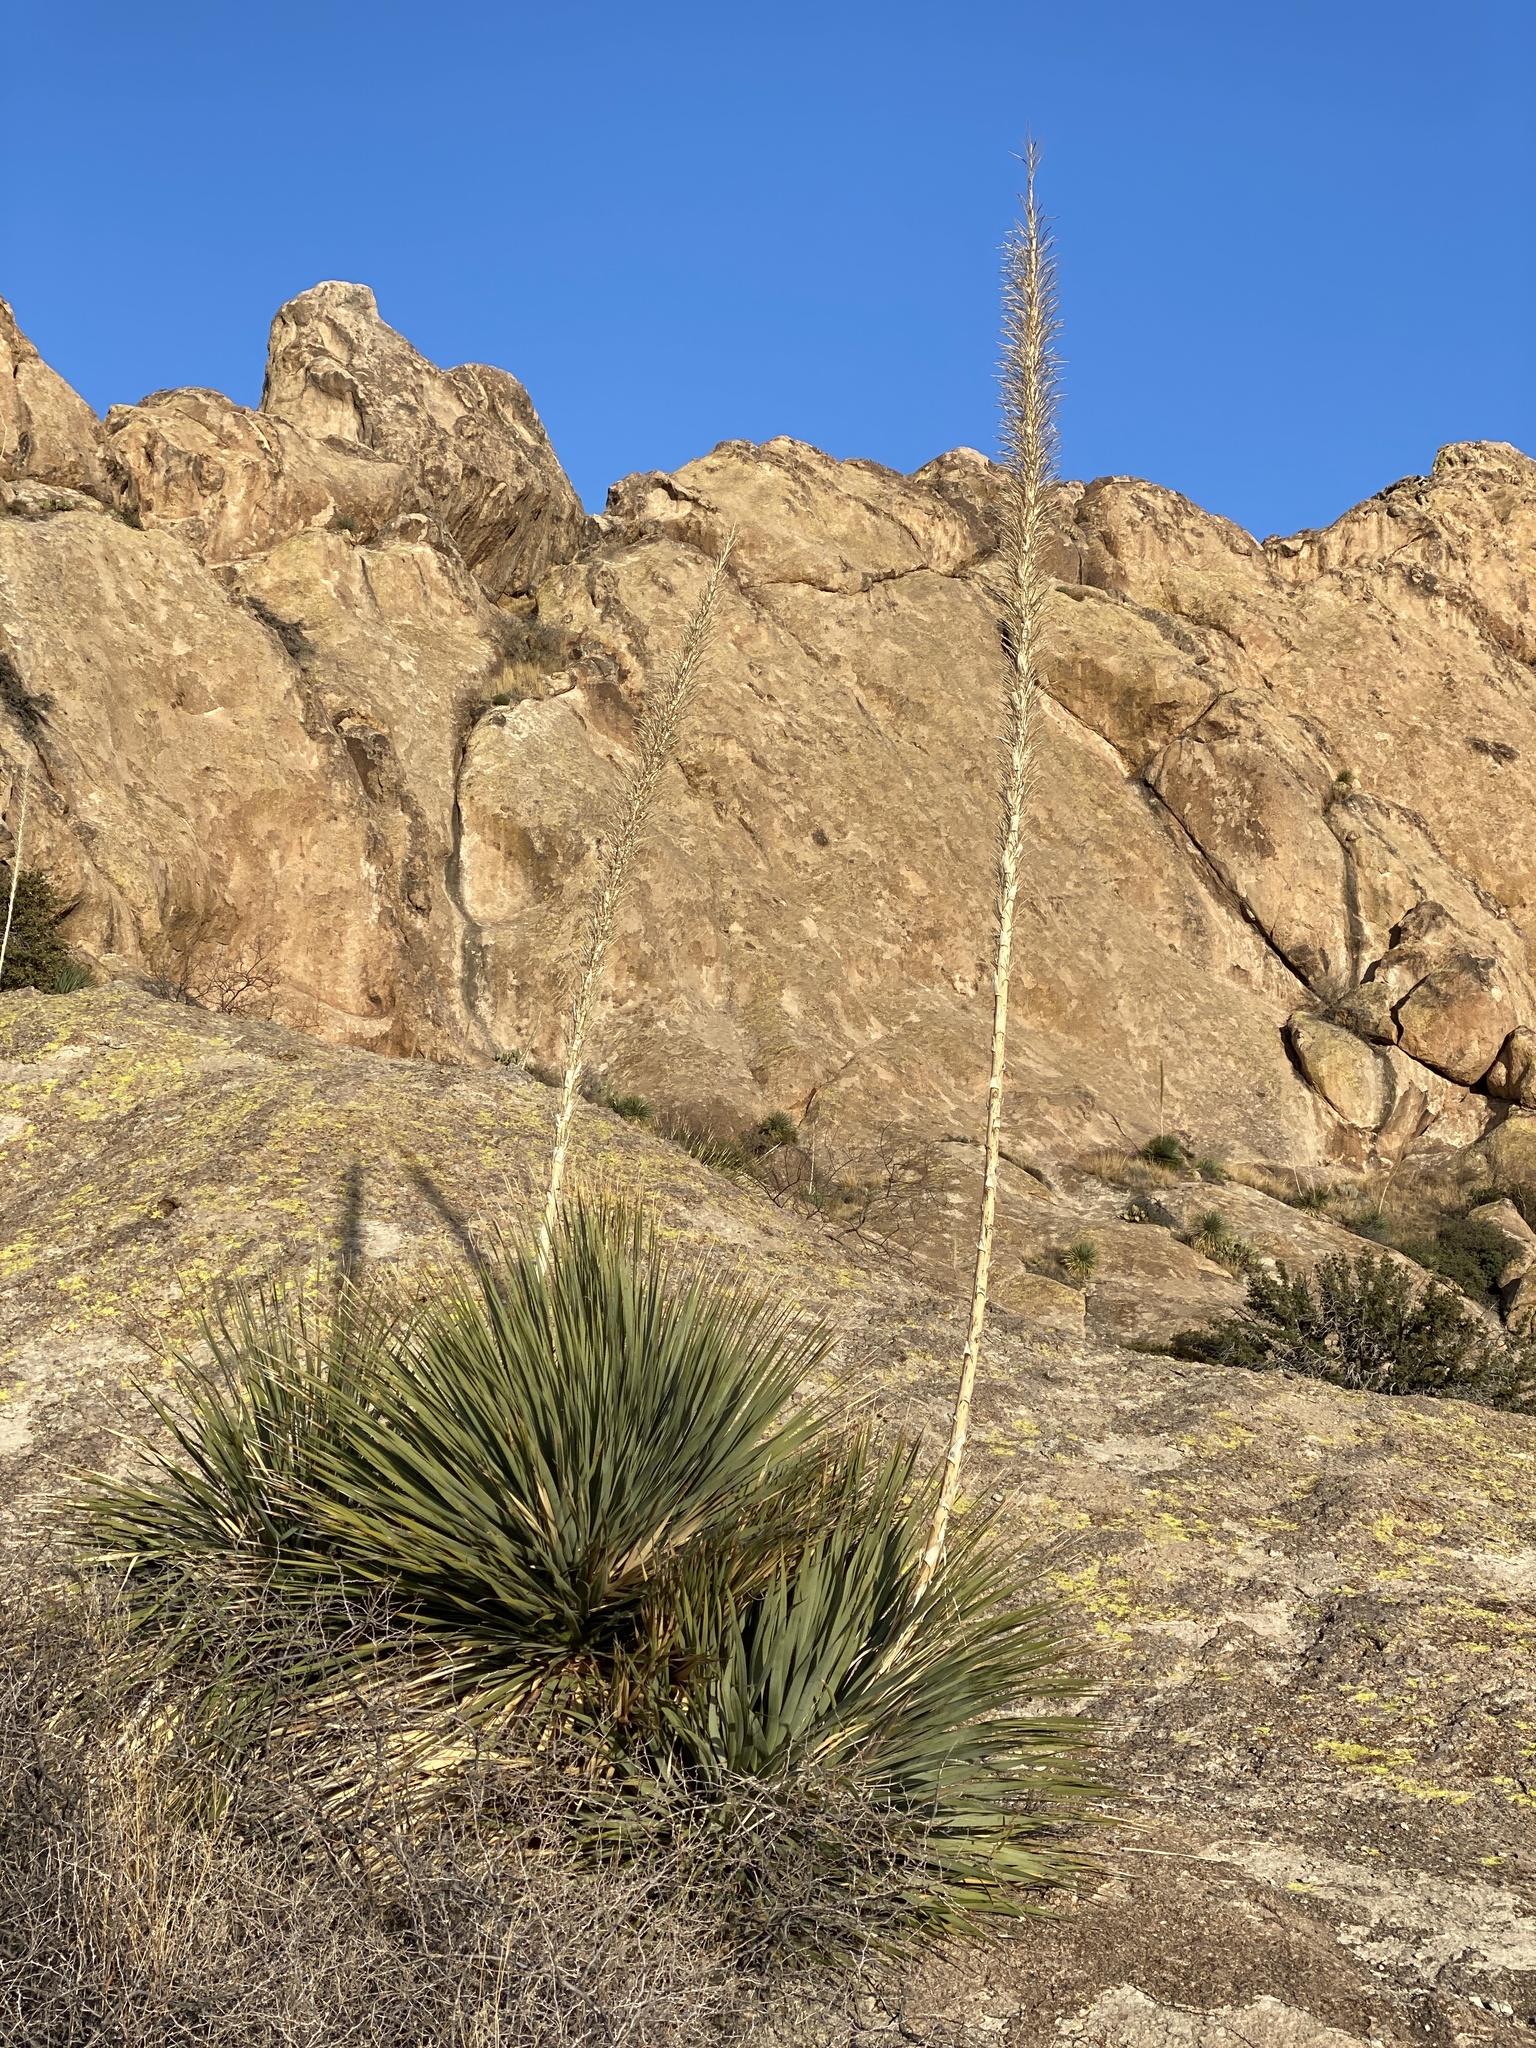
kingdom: Plantae
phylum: Tracheophyta
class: Liliopsida
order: Asparagales
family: Asparagaceae
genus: Dasylirion
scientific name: Dasylirion wheeleri
